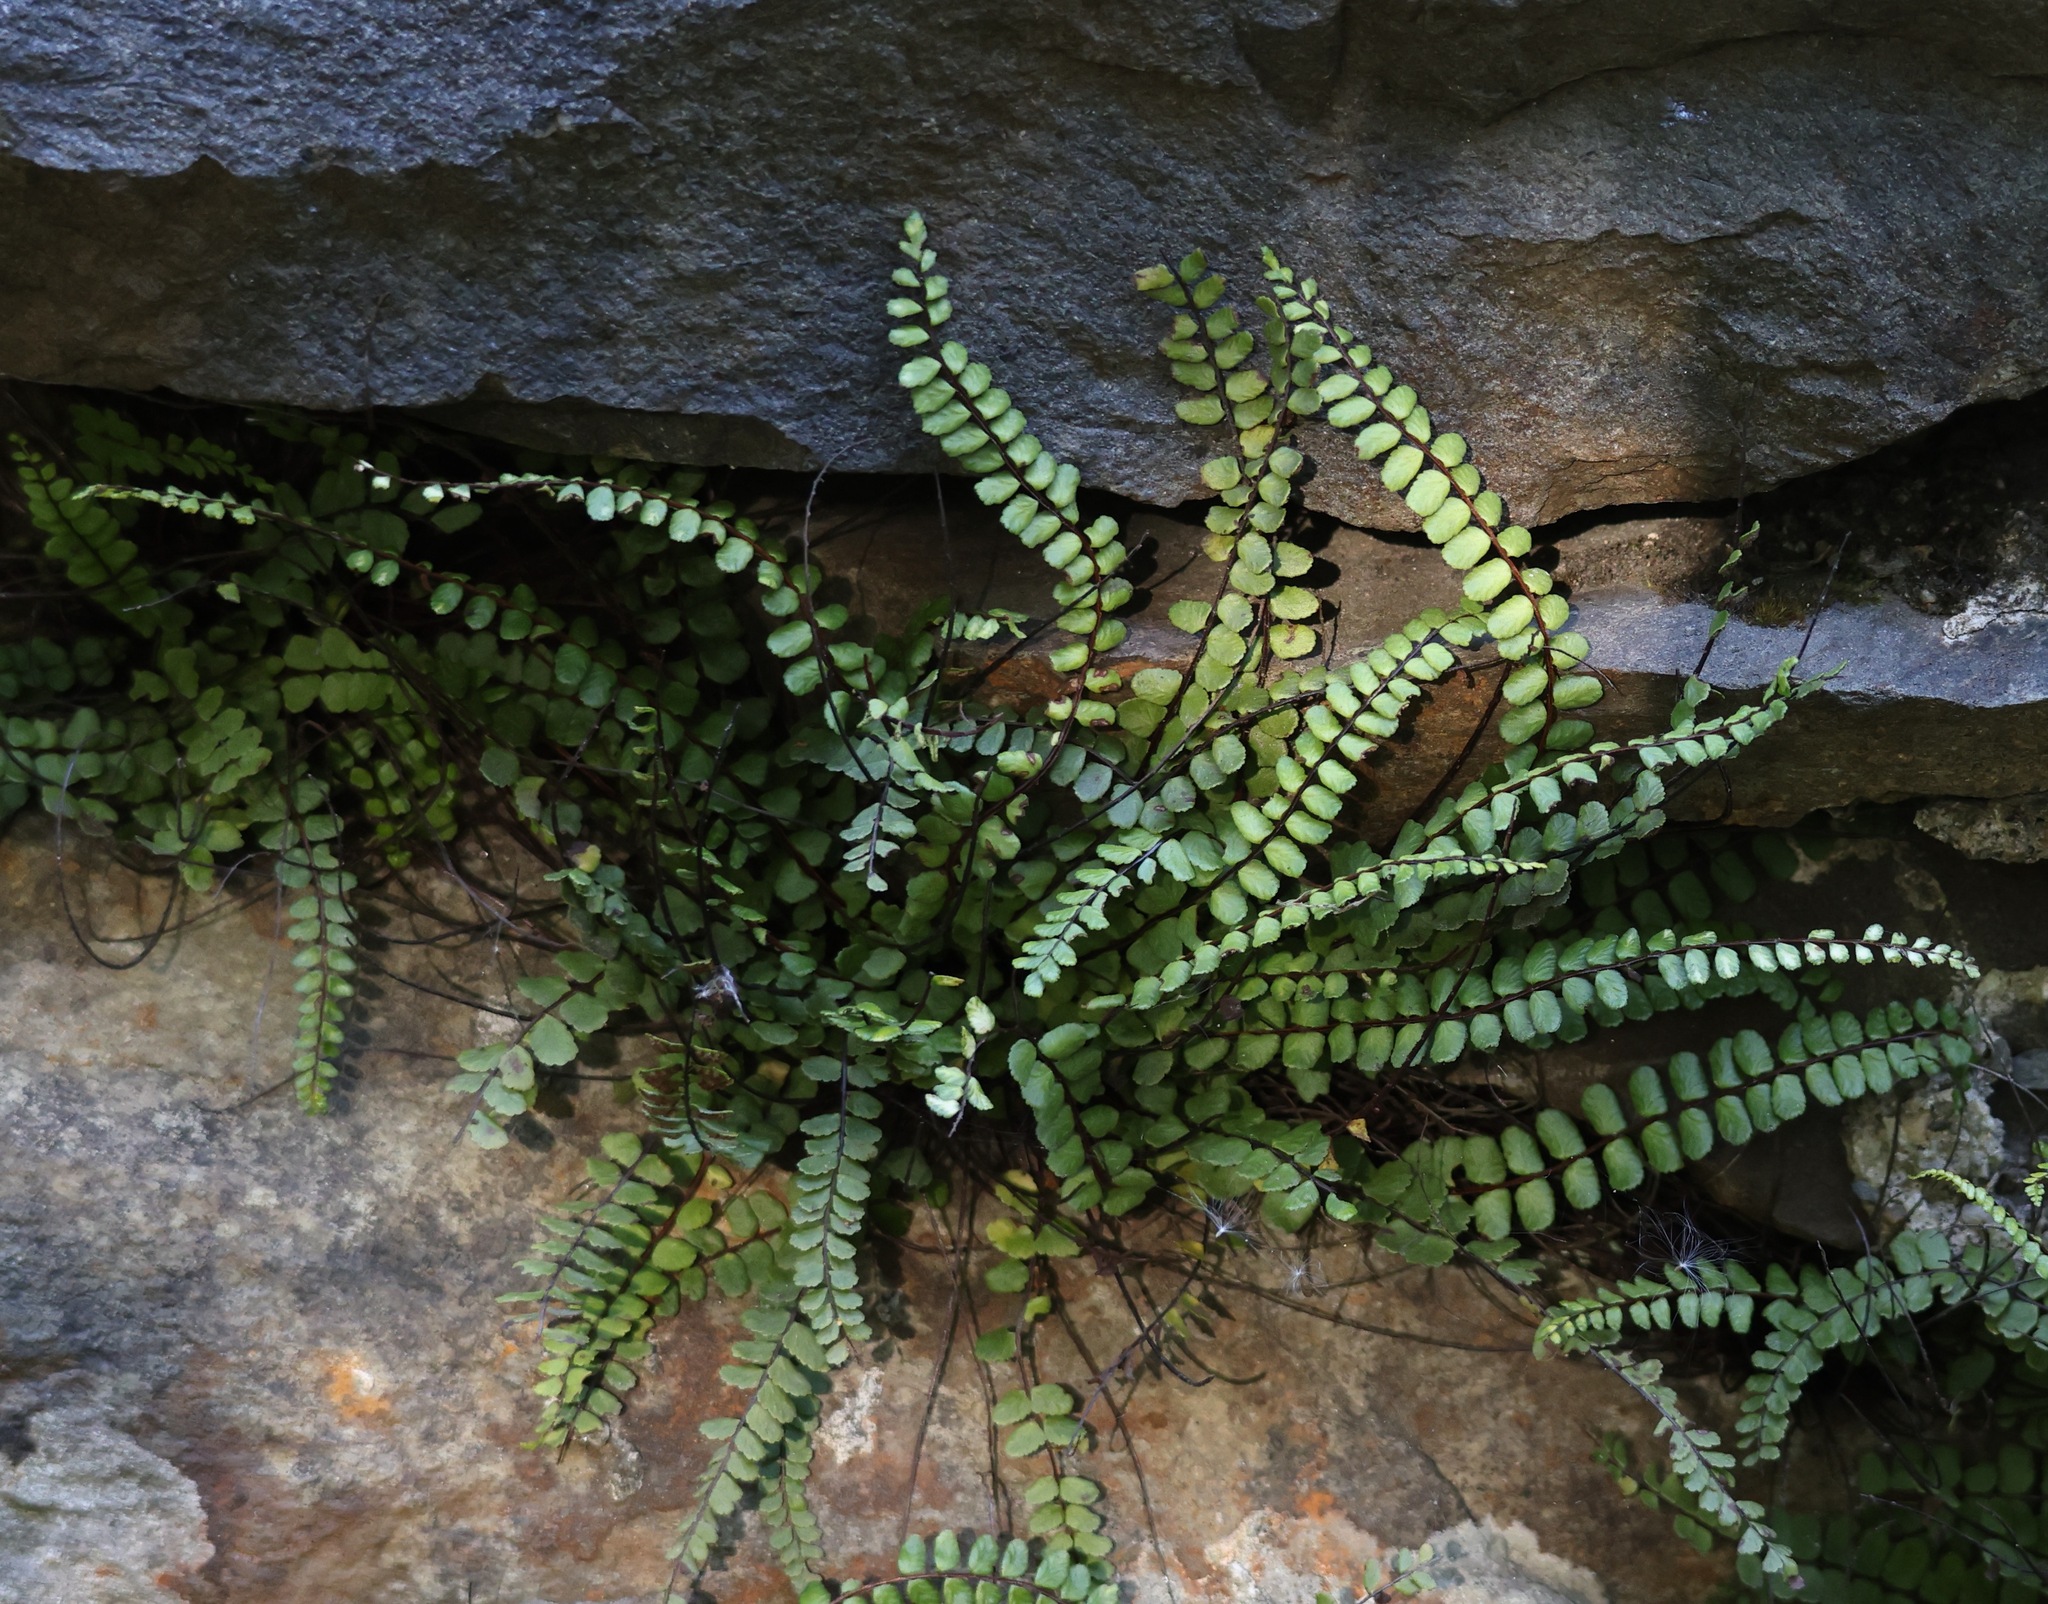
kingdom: Plantae
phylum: Tracheophyta
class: Polypodiopsida
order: Polypodiales
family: Aspleniaceae
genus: Asplenium
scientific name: Asplenium trichomanes
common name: Maidenhair spleenwort
